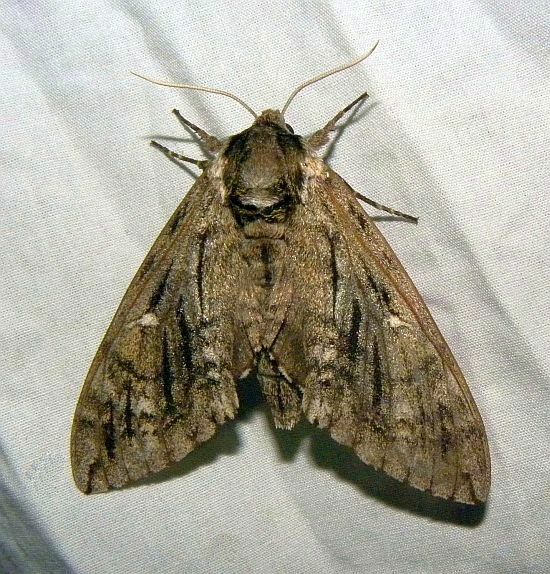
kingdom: Animalia
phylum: Arthropoda
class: Insecta
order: Lepidoptera
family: Sphingidae
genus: Ceratomia
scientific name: Ceratomia catalpae
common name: Catalpa hornworm
